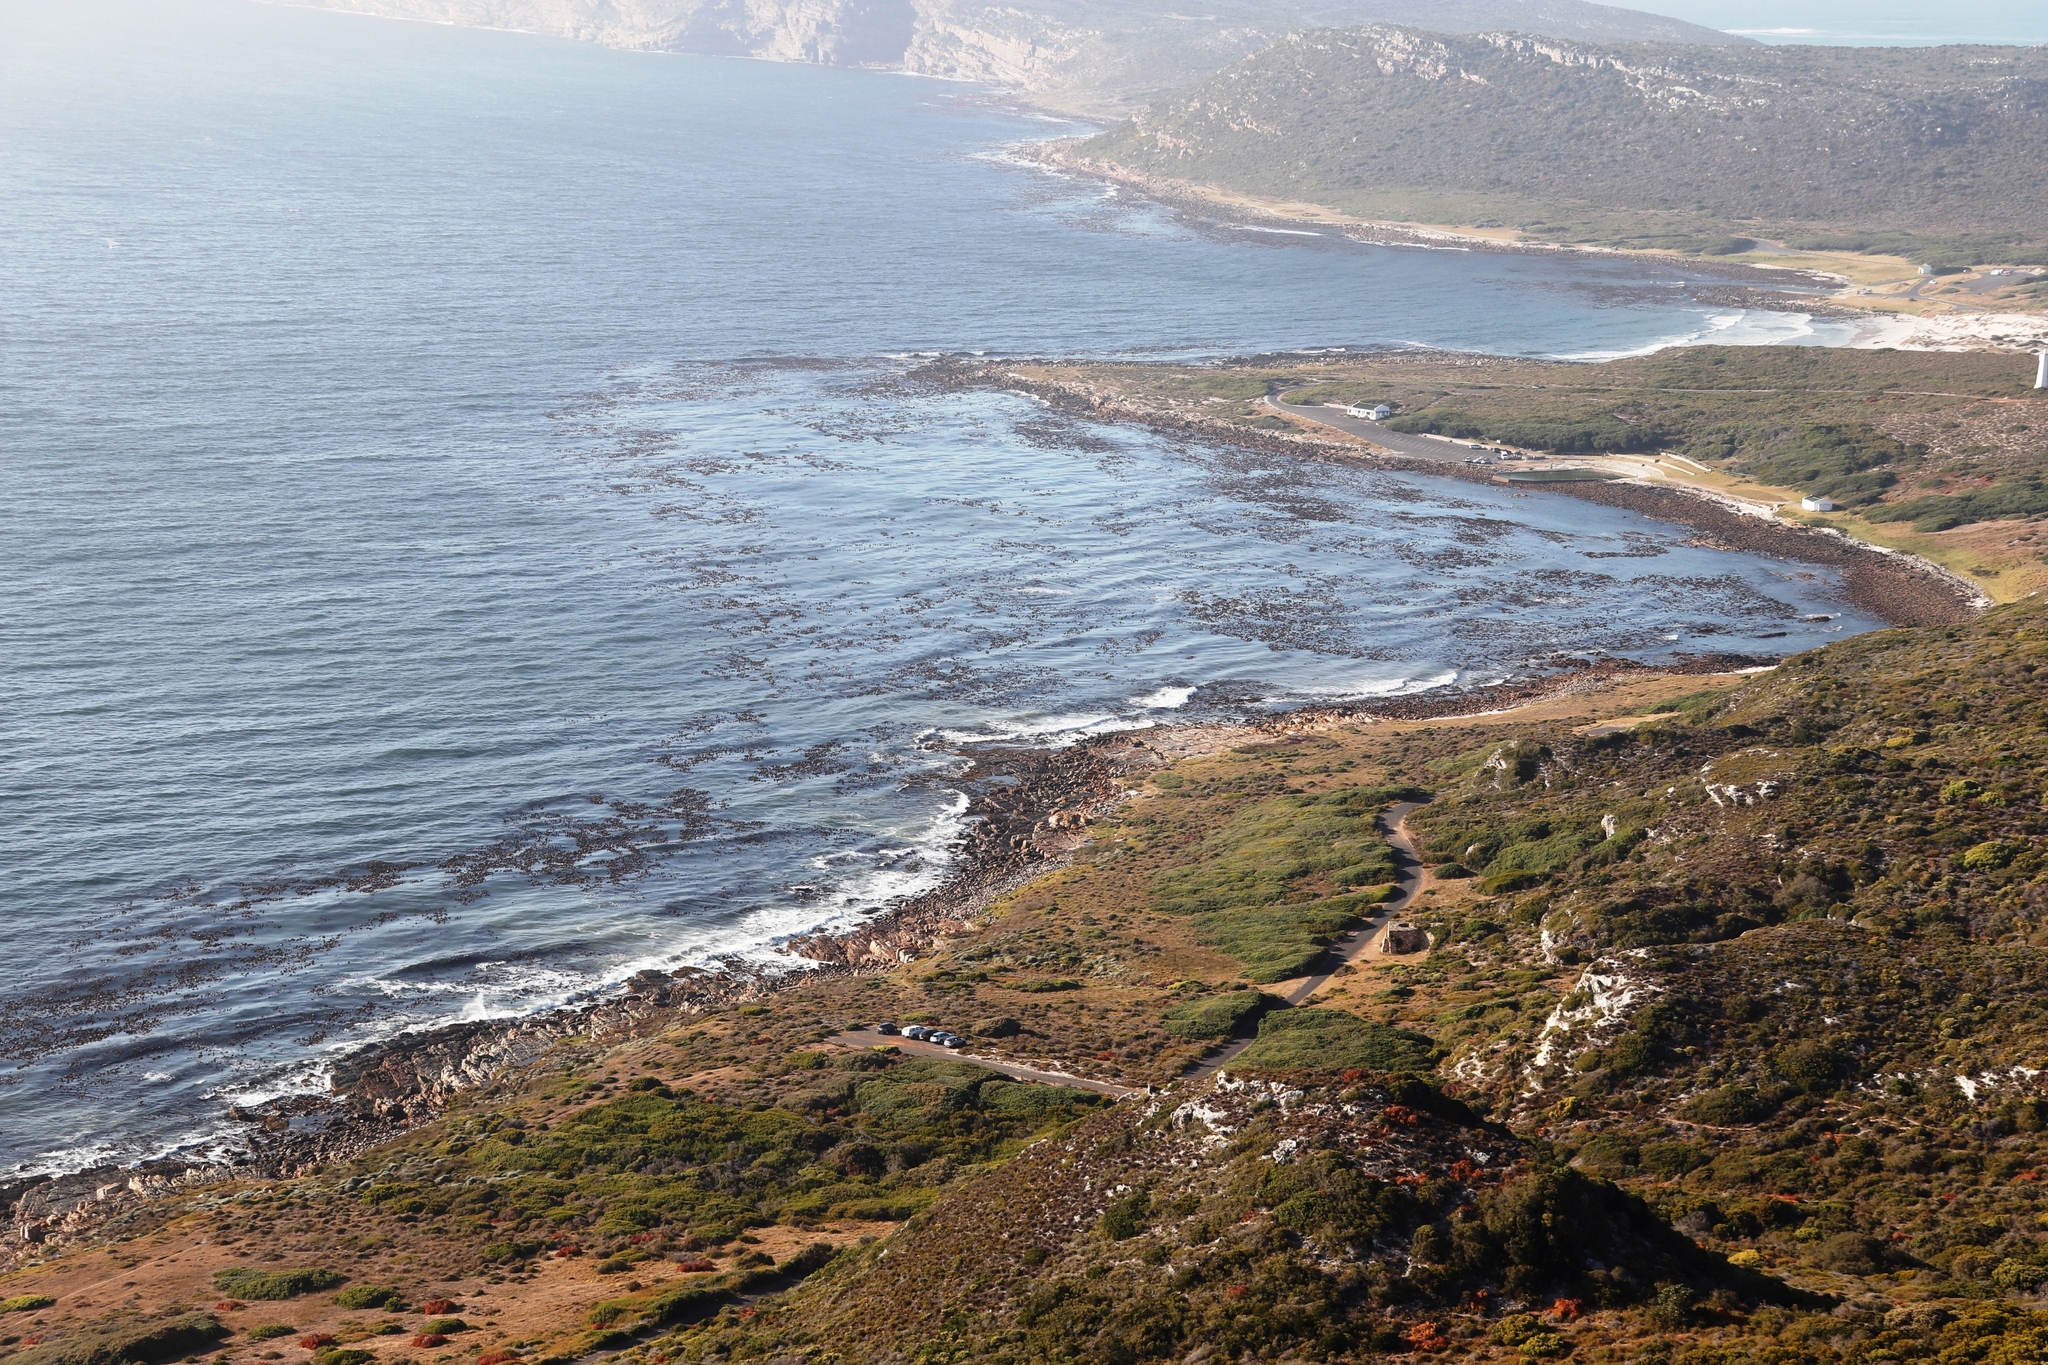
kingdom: Chromista
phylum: Ochrophyta
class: Phaeophyceae
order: Laminariales
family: Lessoniaceae
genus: Ecklonia
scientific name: Ecklonia
